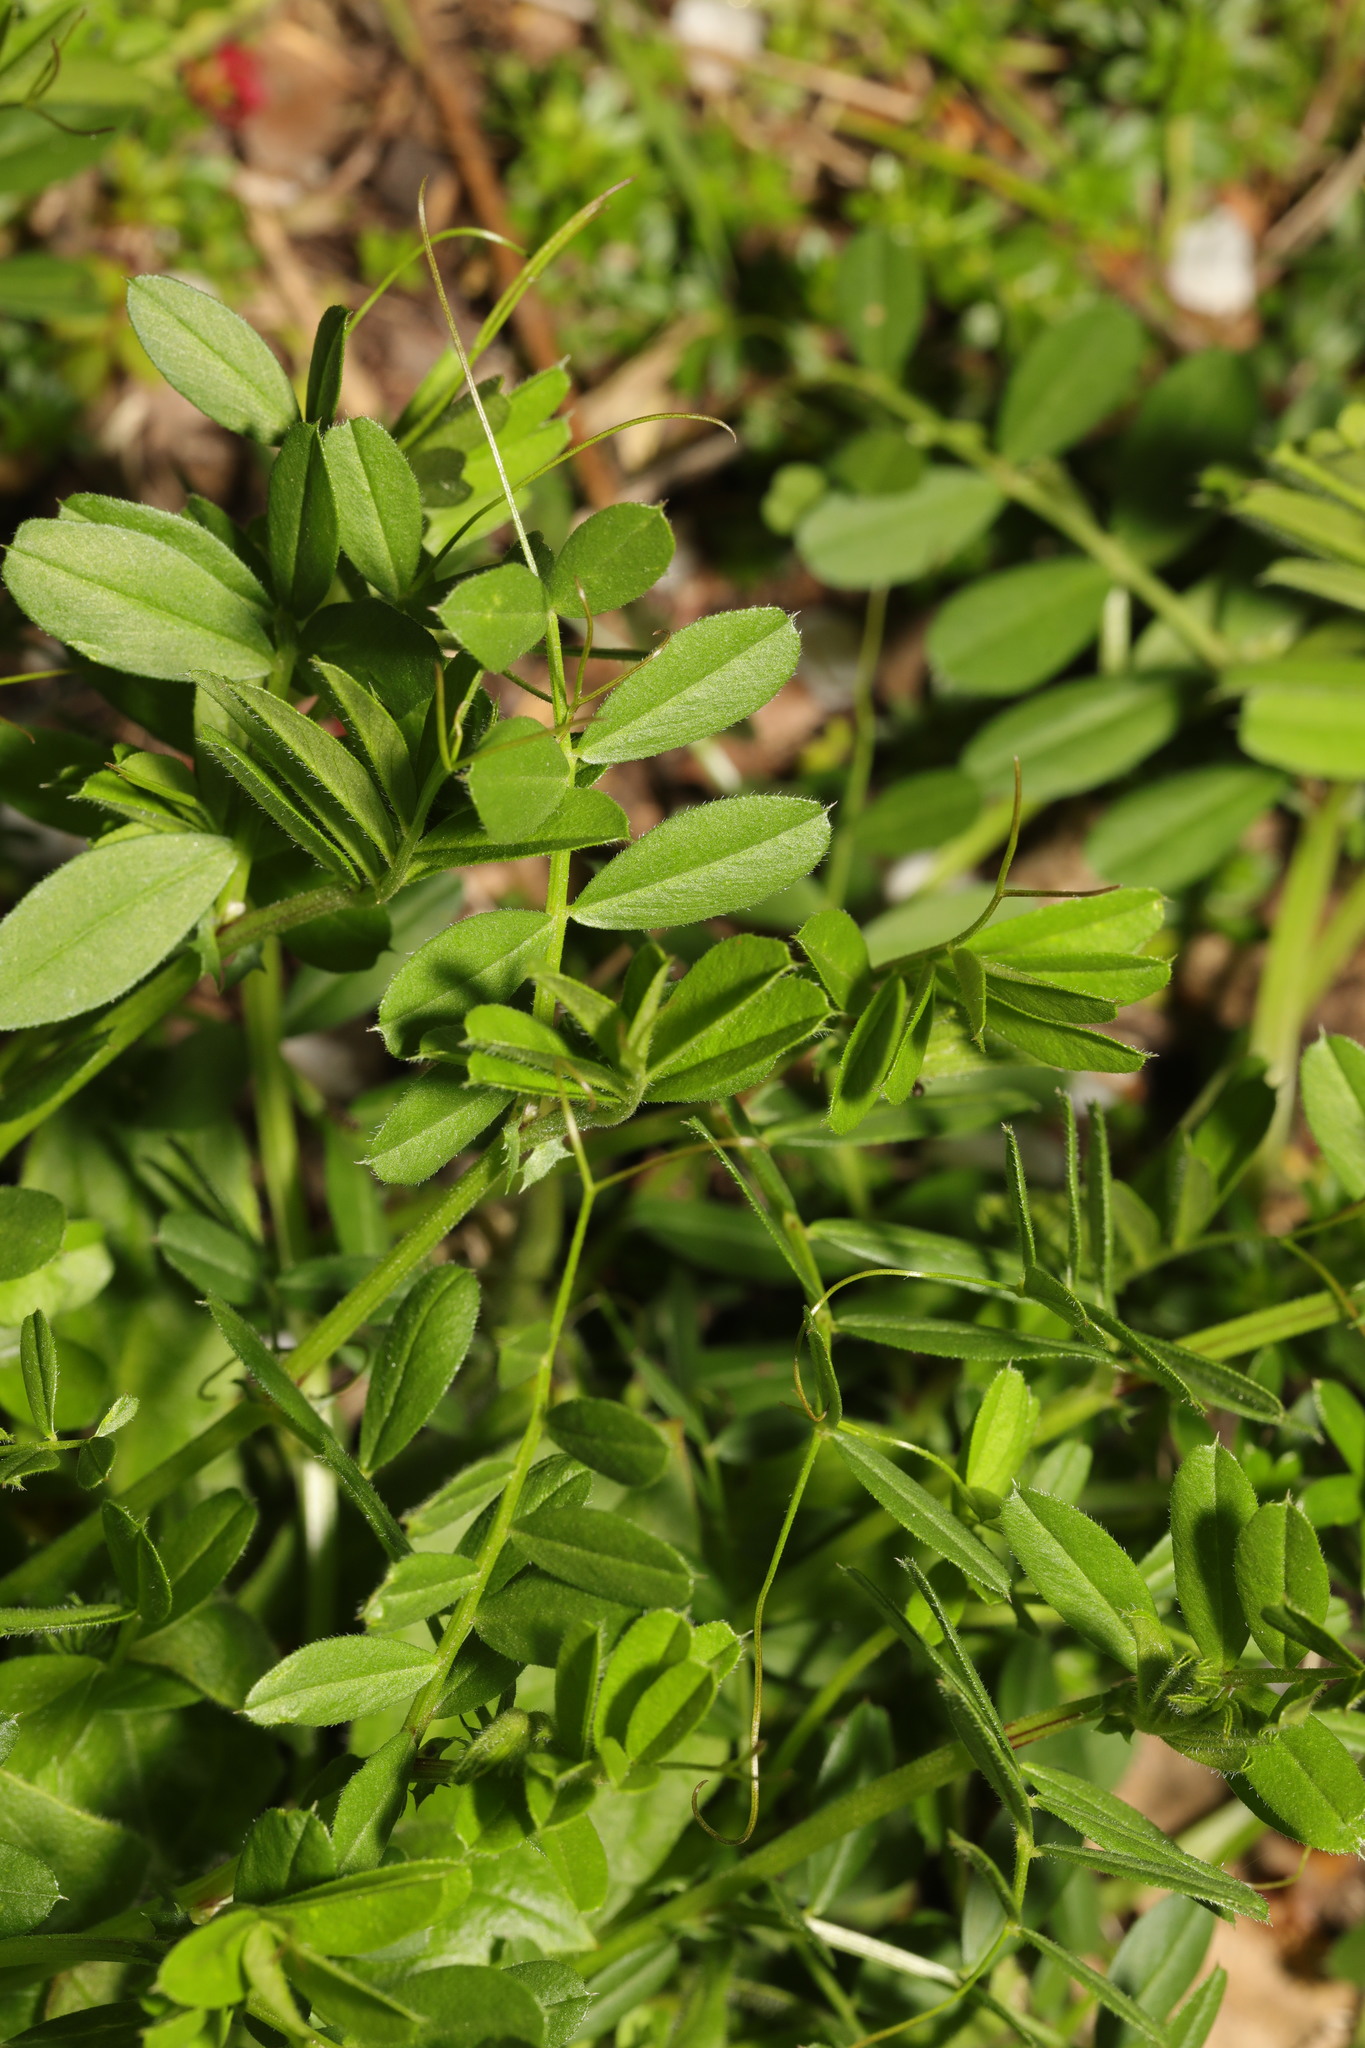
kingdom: Plantae
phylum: Tracheophyta
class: Magnoliopsida
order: Fabales
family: Fabaceae
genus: Vicia
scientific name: Vicia sativa
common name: Garden vetch
